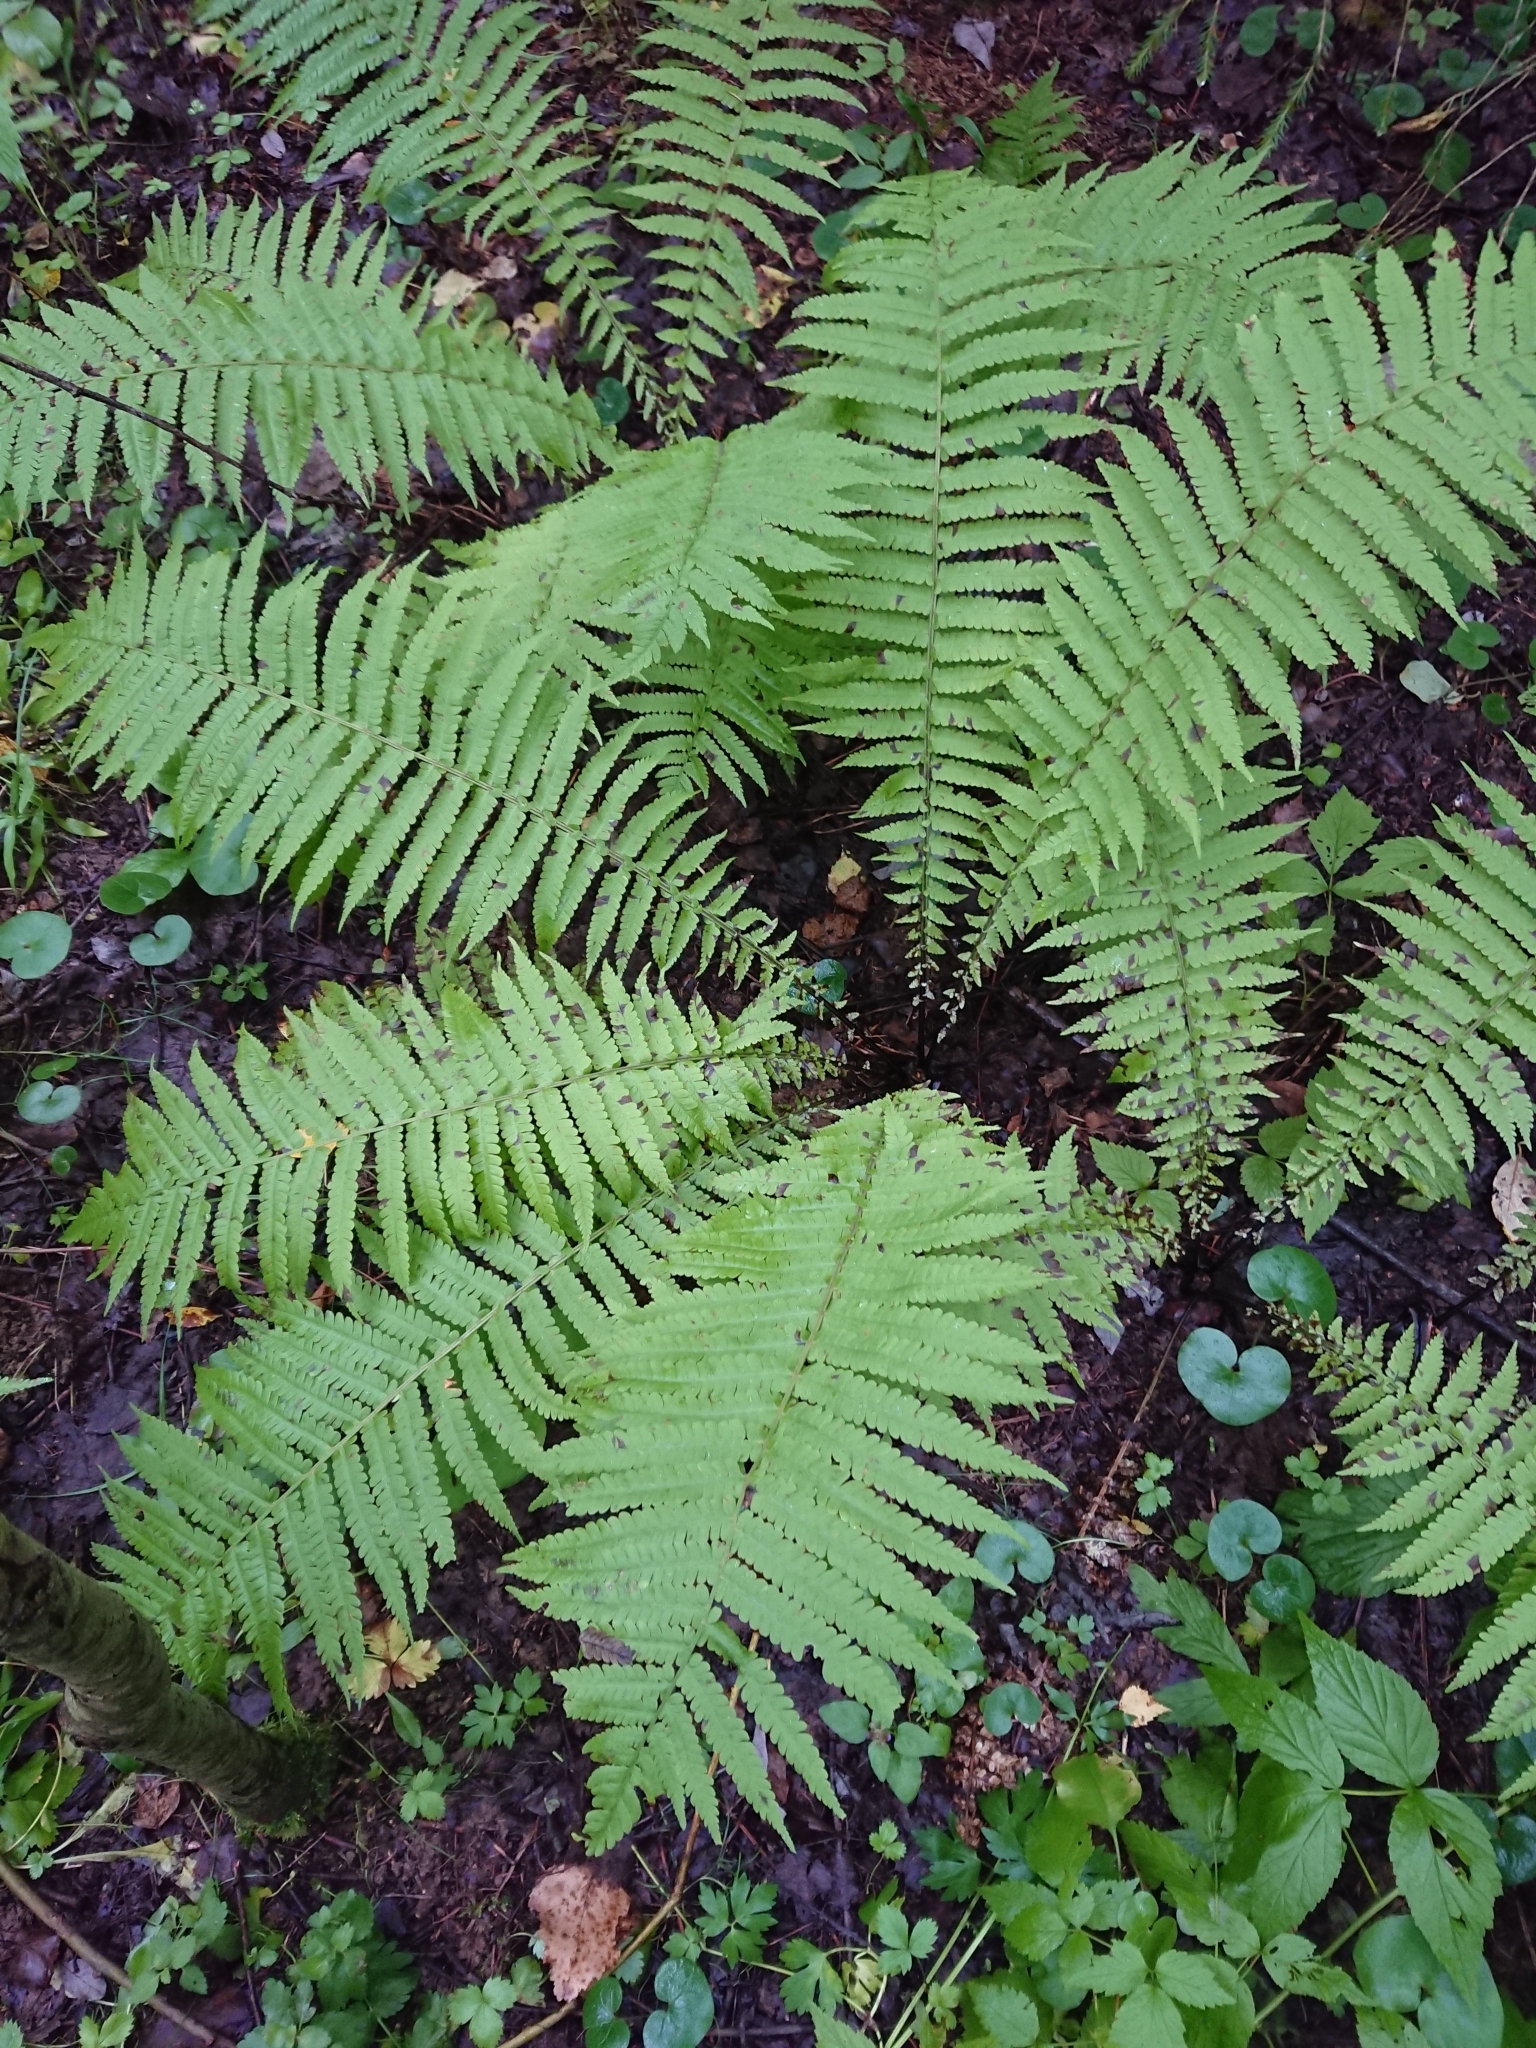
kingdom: Plantae
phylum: Tracheophyta
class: Polypodiopsida
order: Polypodiales
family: Onocleaceae
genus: Matteuccia
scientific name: Matteuccia struthiopteris
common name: Ostrich fern
